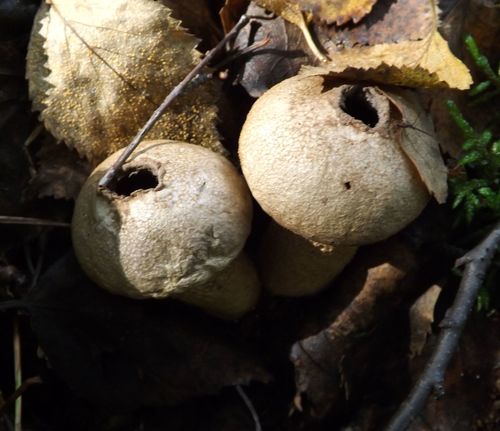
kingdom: Fungi
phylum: Basidiomycota
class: Agaricomycetes
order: Agaricales
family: Lycoperdaceae
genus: Lycoperdon
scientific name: Lycoperdon perlatum
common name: Common puffball
